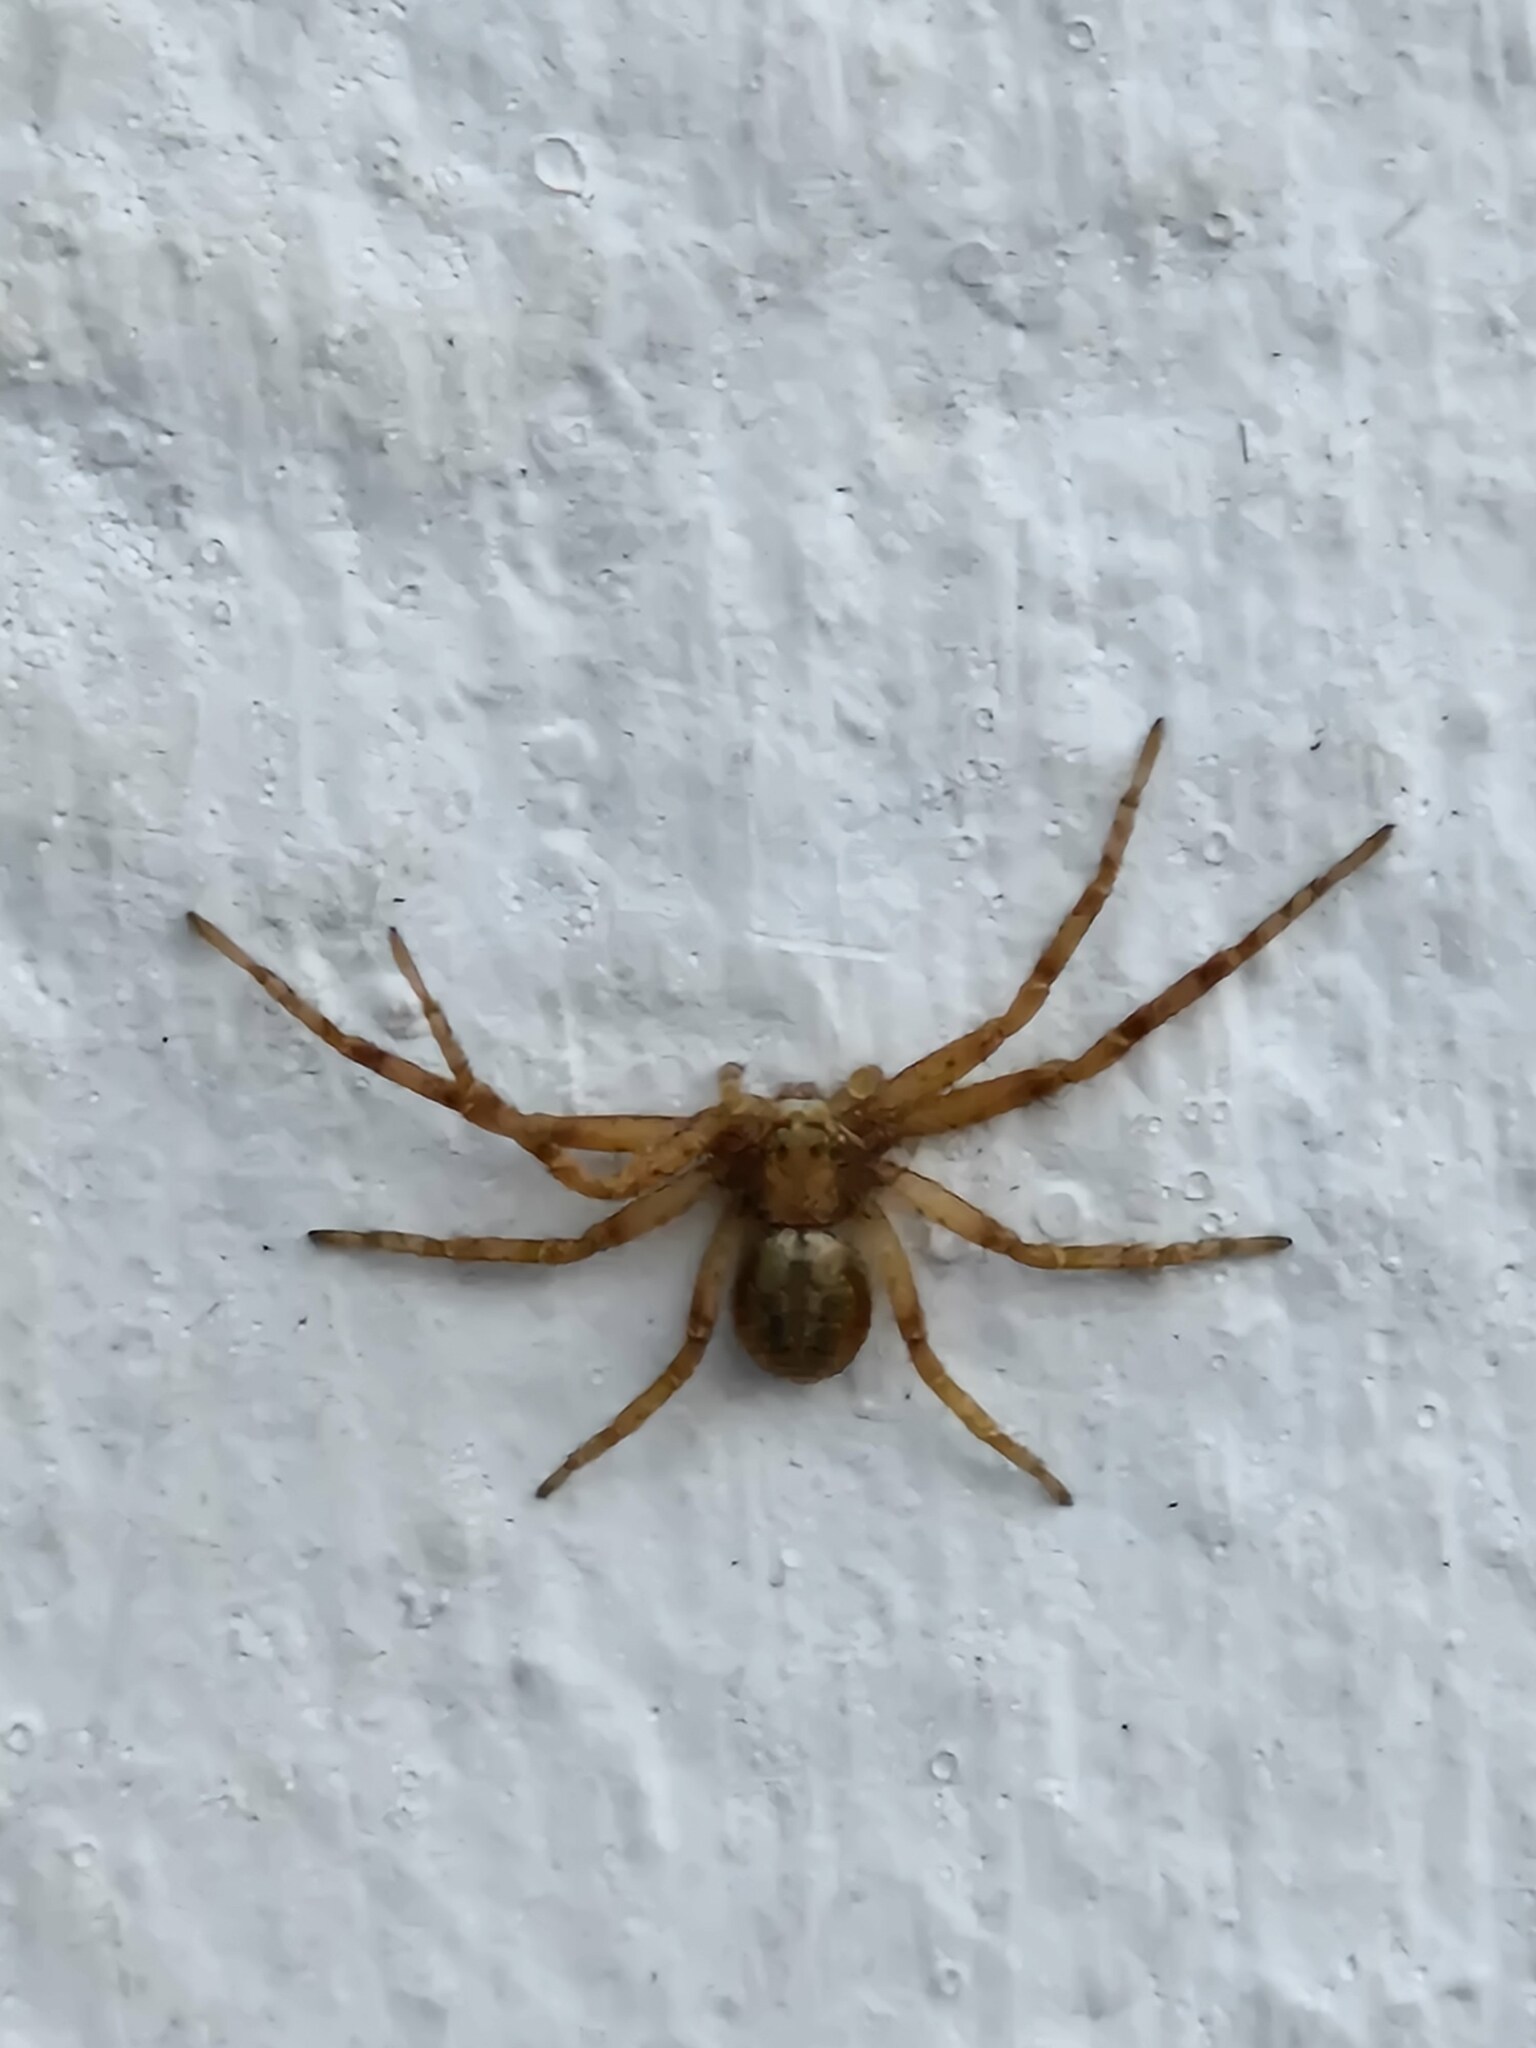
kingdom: Animalia
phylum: Arthropoda
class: Arachnida
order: Araneae
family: Philodromidae
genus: Philodromus
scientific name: Philodromus
